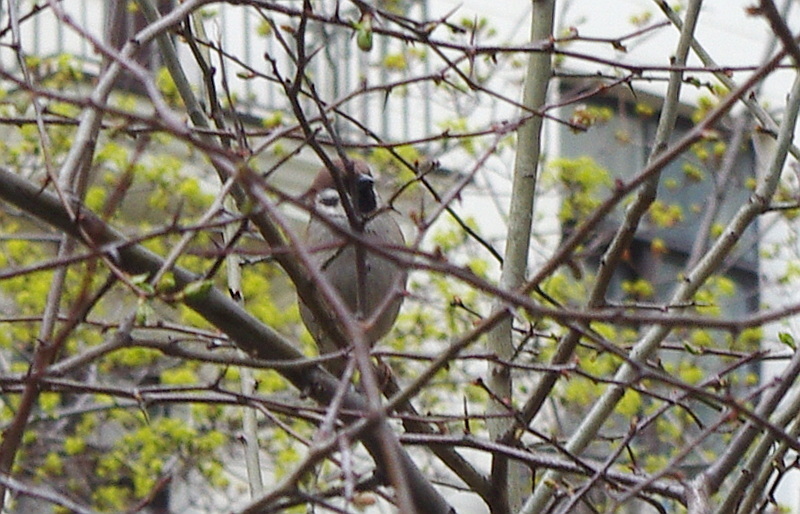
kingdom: Animalia
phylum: Chordata
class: Aves
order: Passeriformes
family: Passeridae
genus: Passer
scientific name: Passer montanus
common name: Eurasian tree sparrow
